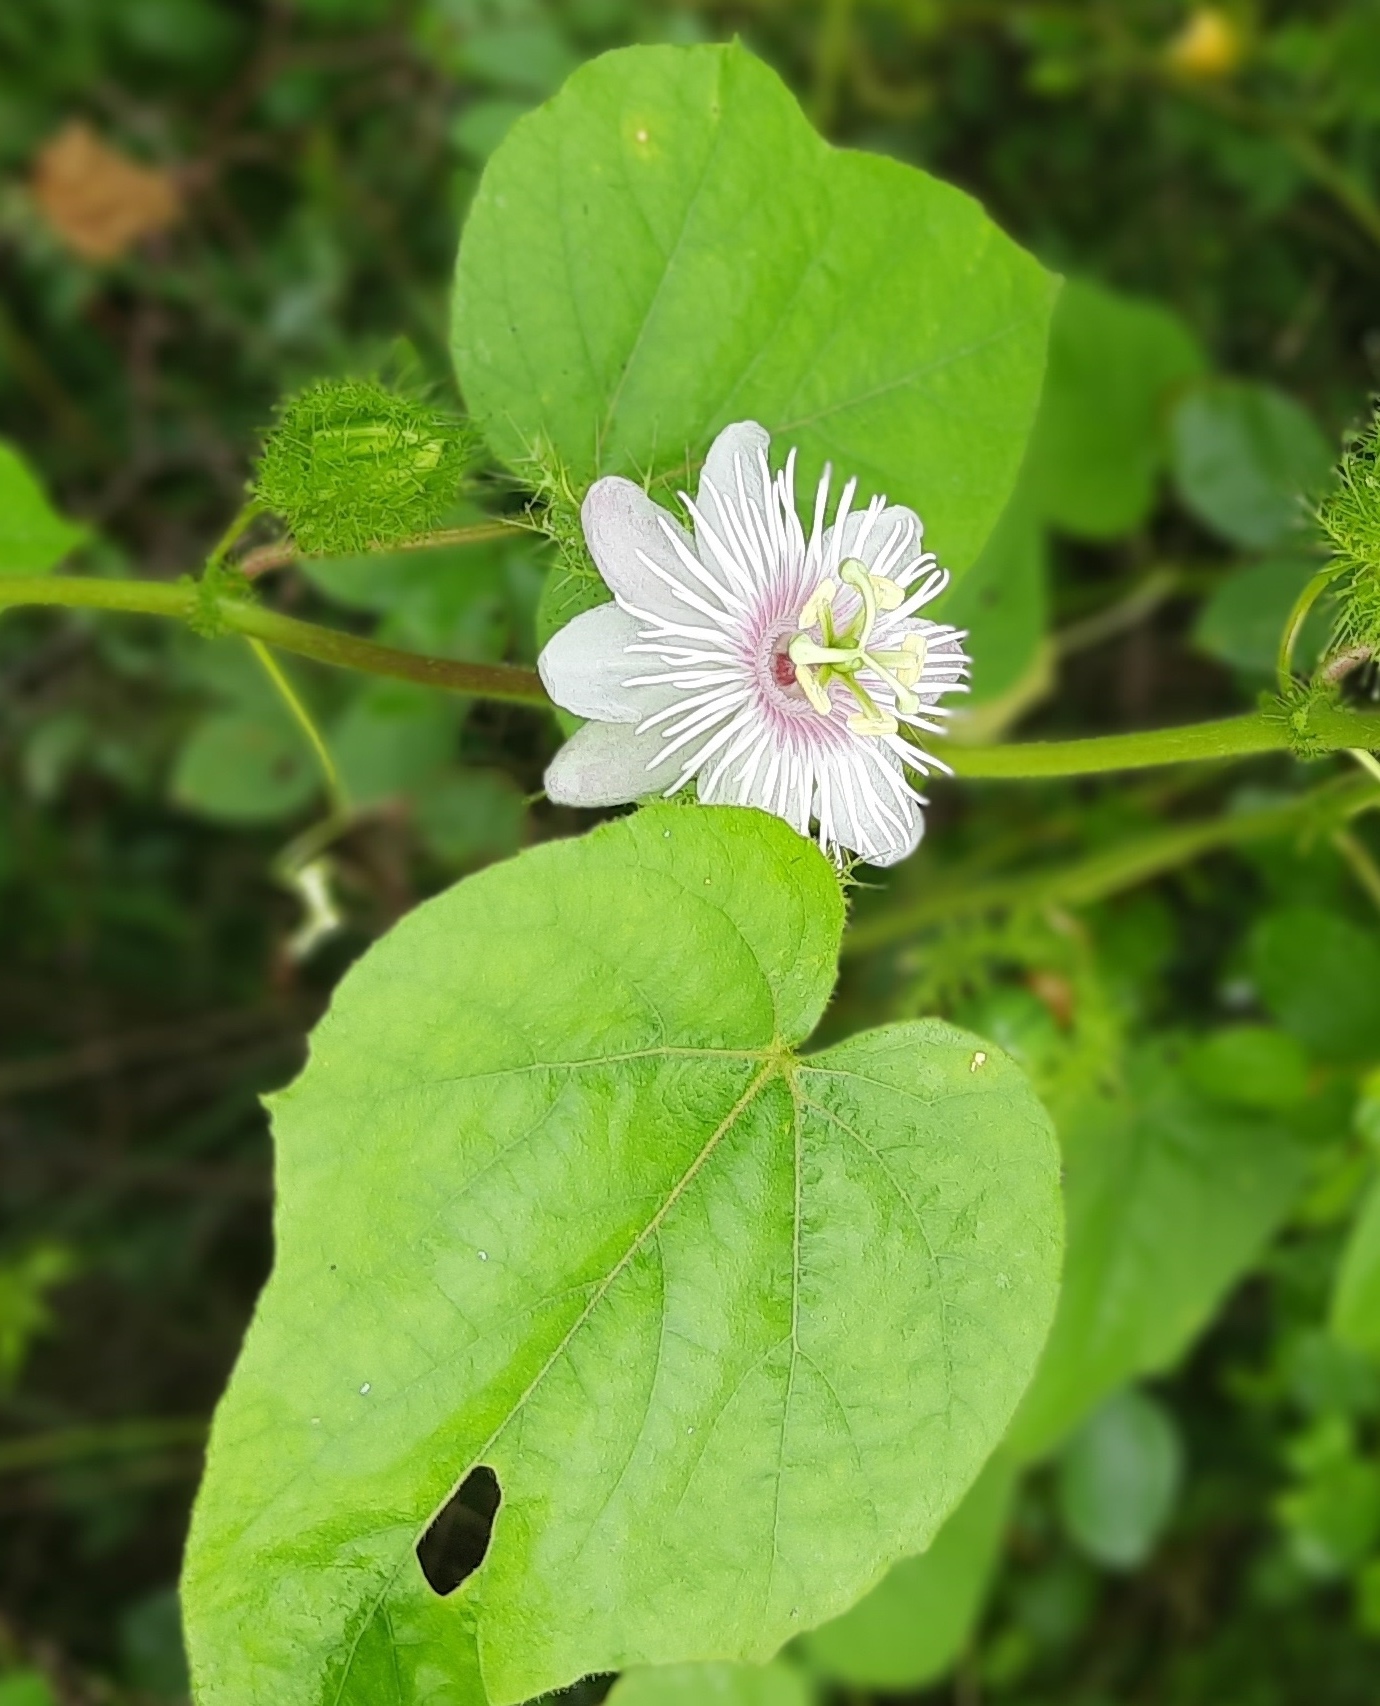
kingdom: Plantae
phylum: Tracheophyta
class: Magnoliopsida
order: Malpighiales
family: Passifloraceae
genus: Passiflora
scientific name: Passiflora foetida
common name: Fetid passionflower
